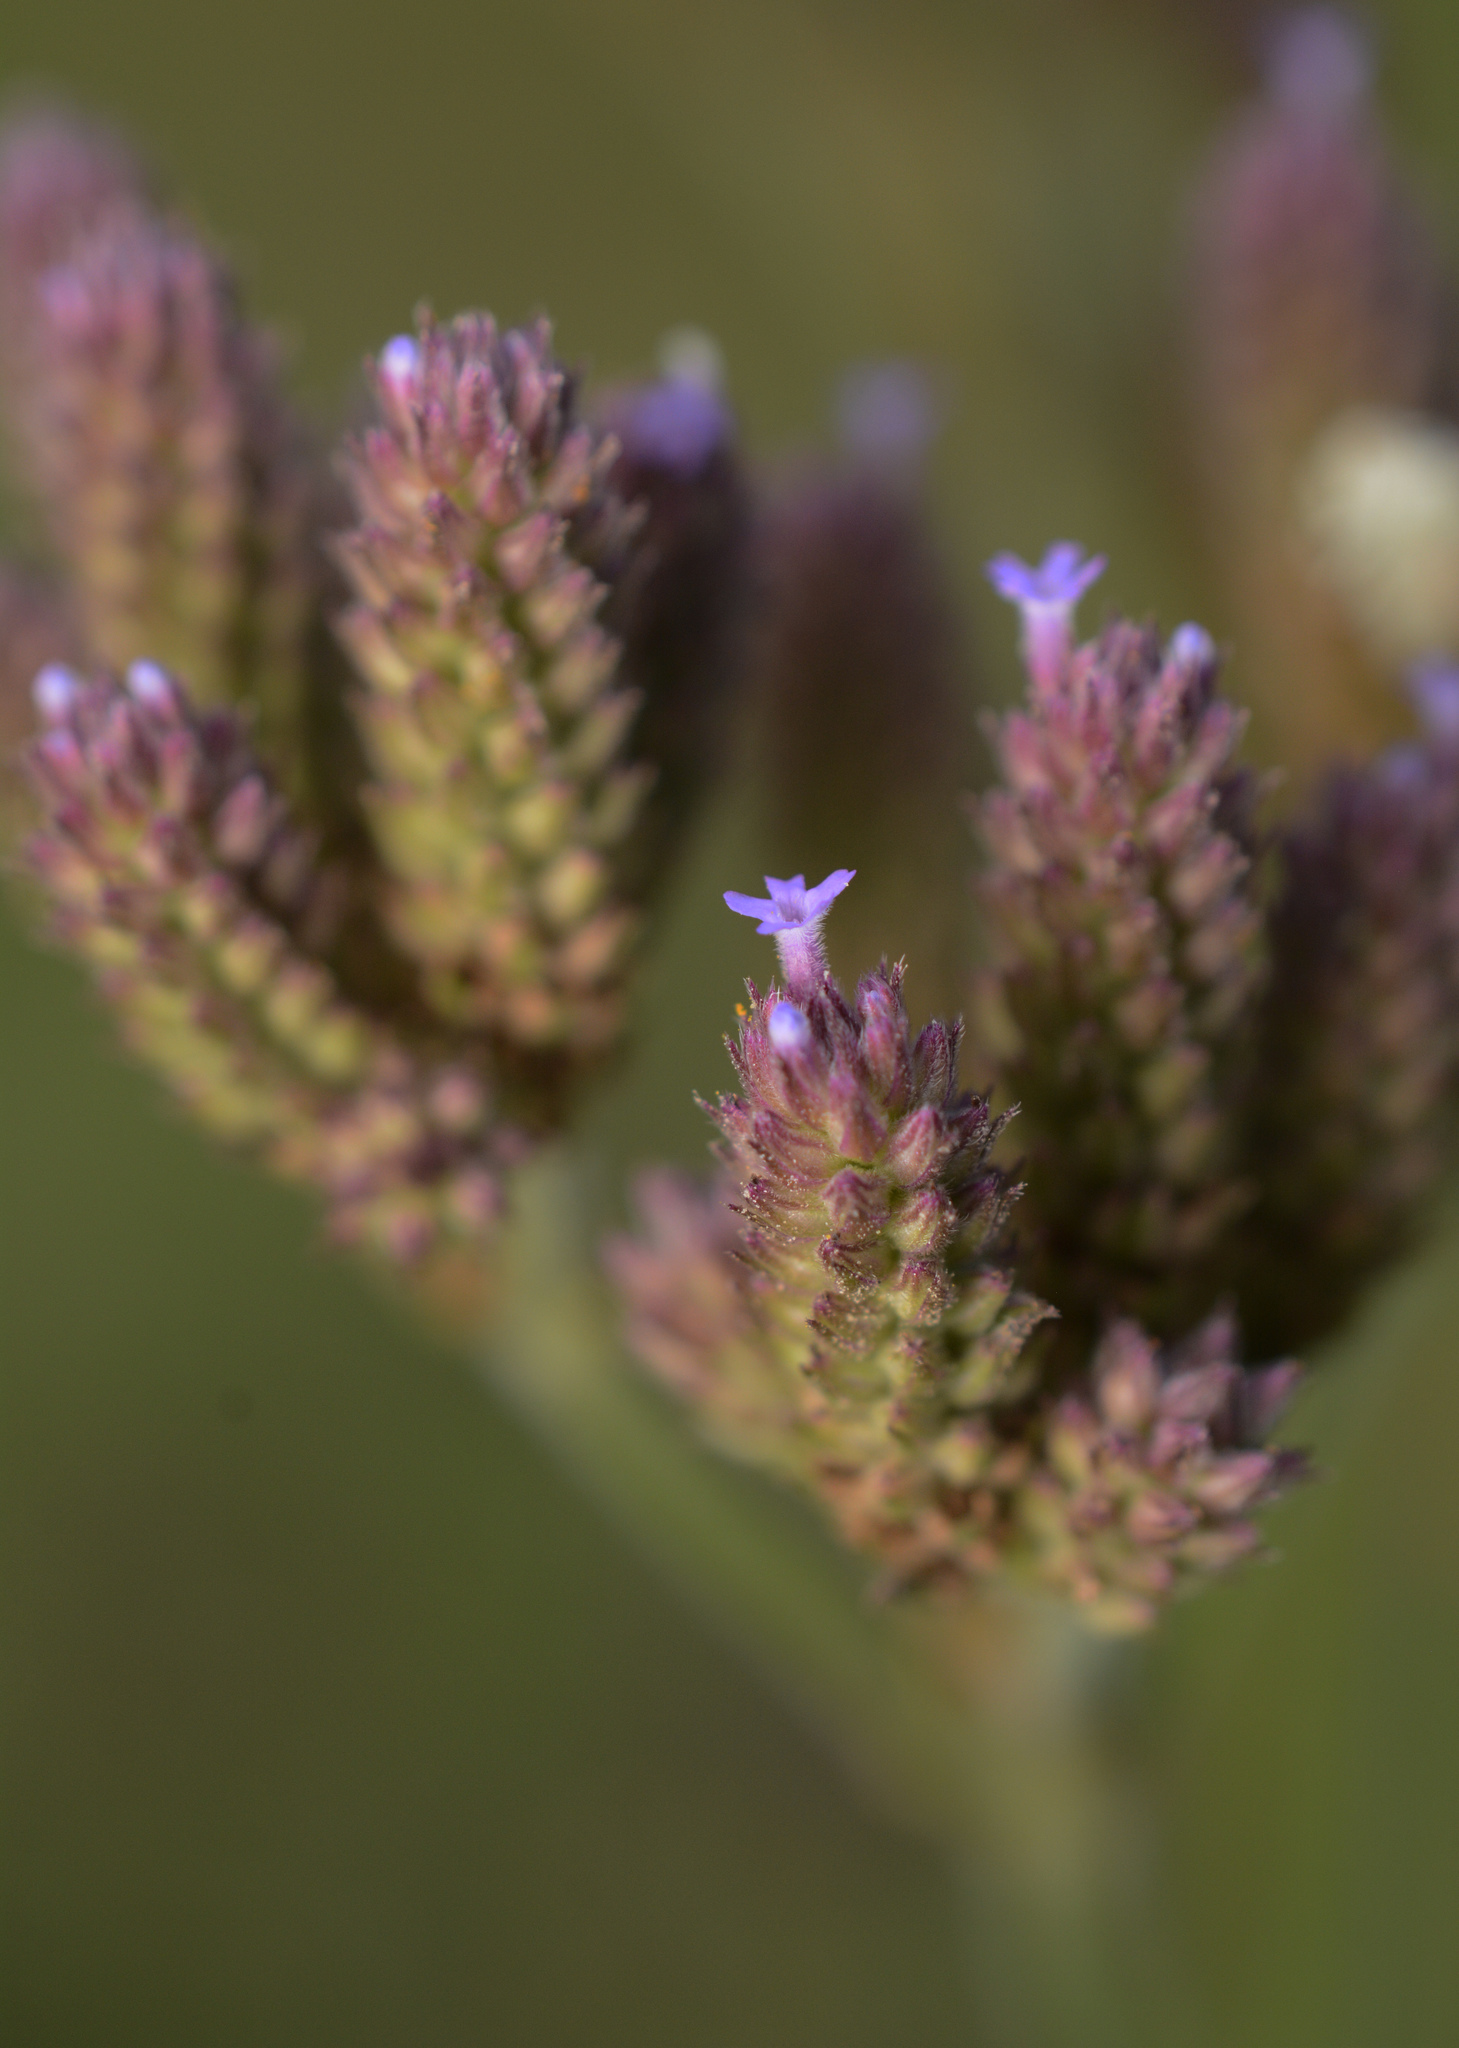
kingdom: Plantae
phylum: Tracheophyta
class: Magnoliopsida
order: Lamiales
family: Verbenaceae
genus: Verbena
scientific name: Verbena brasiliensis
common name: Brazilian vervain
